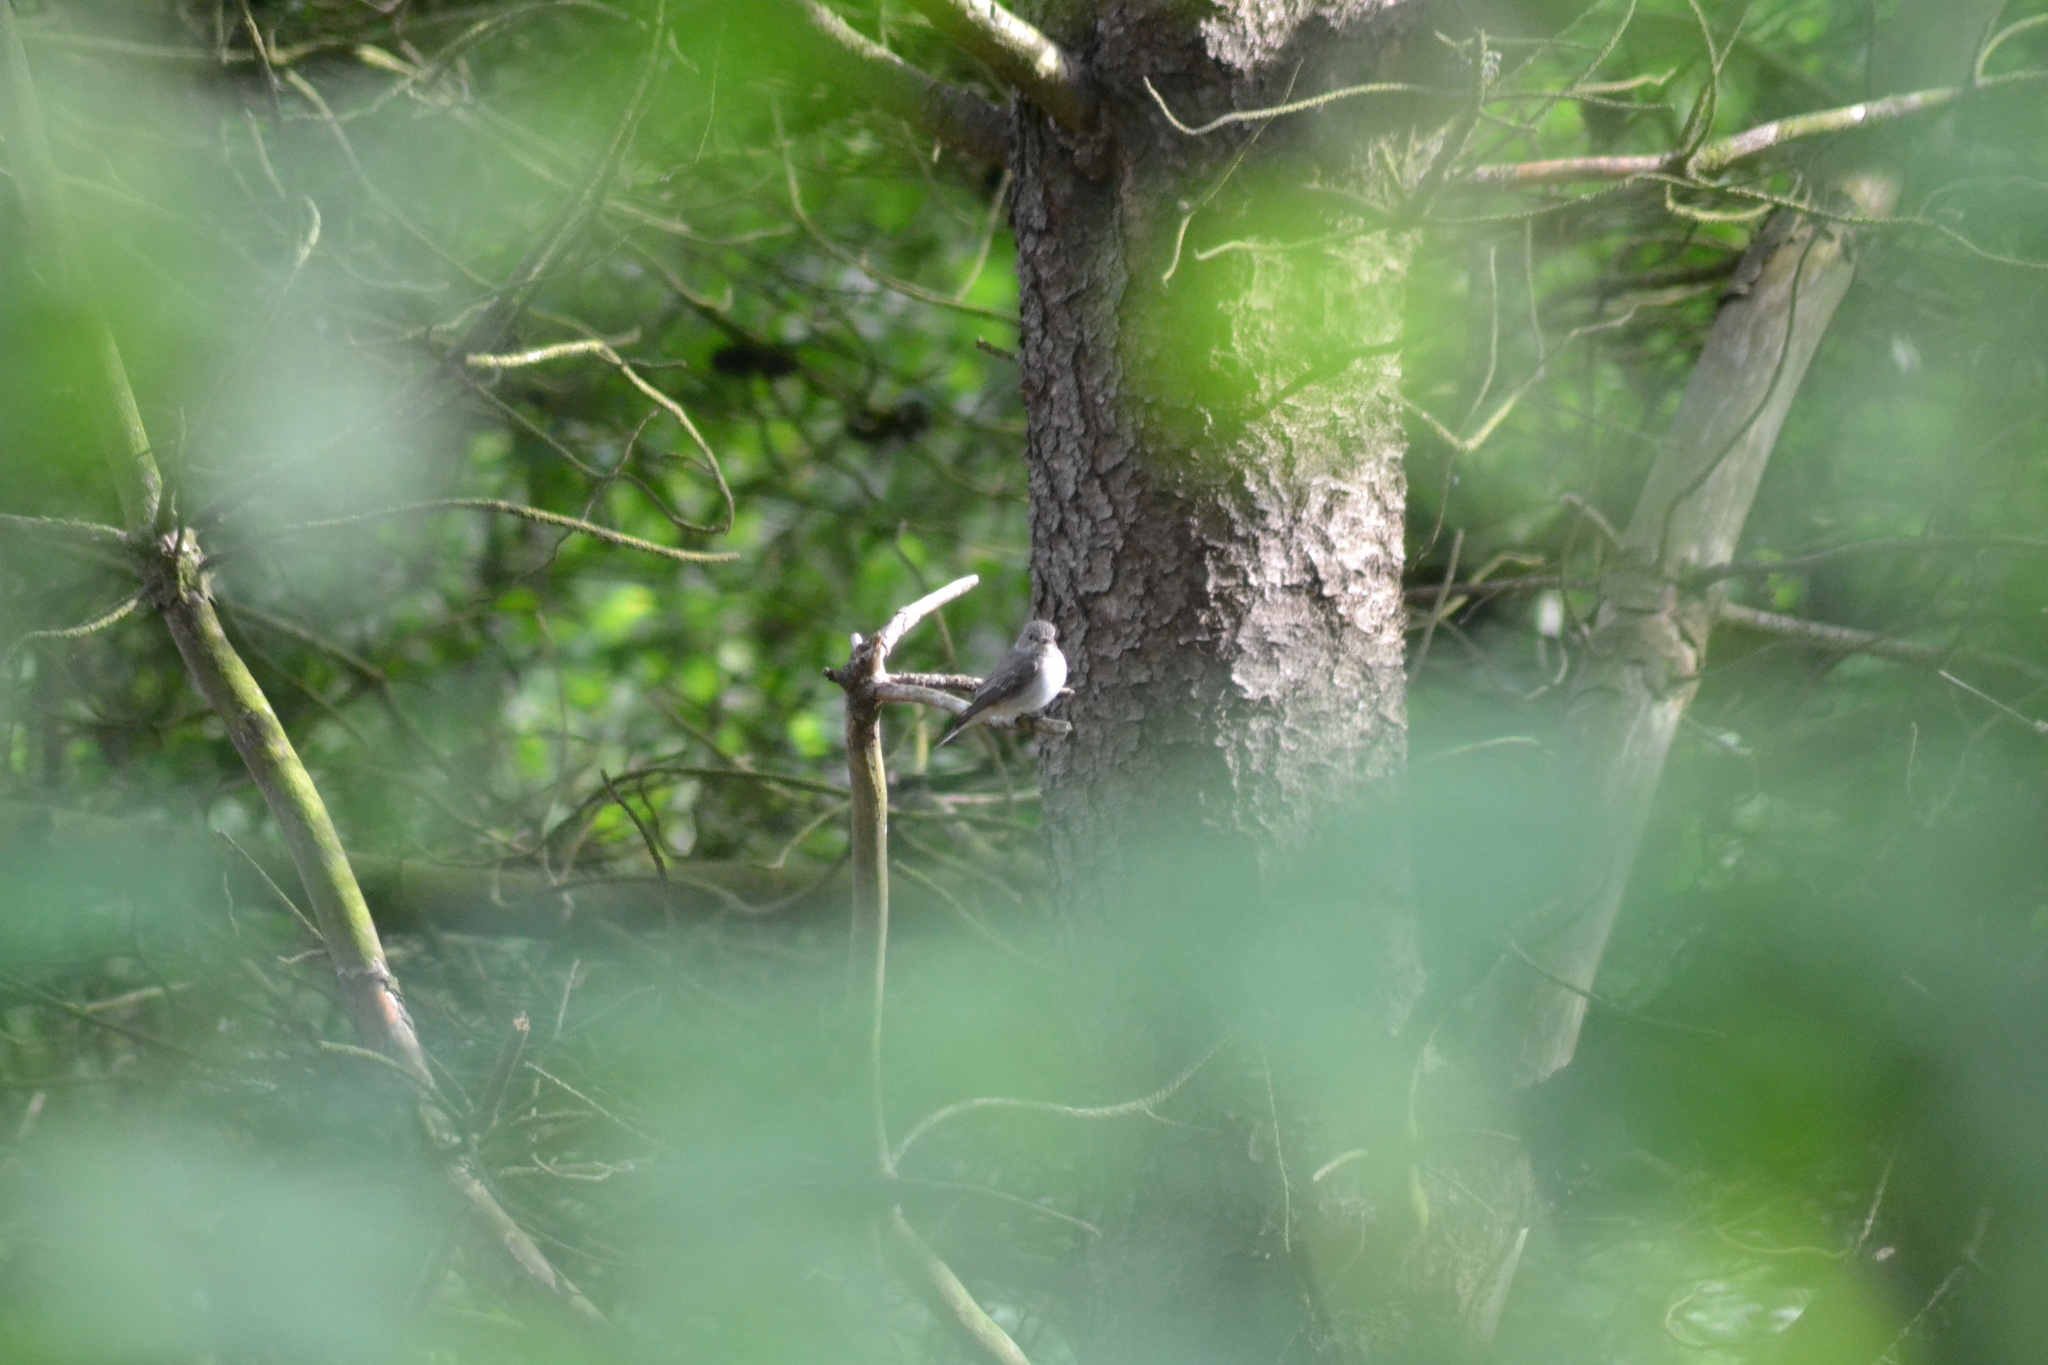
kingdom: Animalia
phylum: Chordata
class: Aves
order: Passeriformes
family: Muscicapidae
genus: Muscicapa
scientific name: Muscicapa striata
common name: Spotted flycatcher
